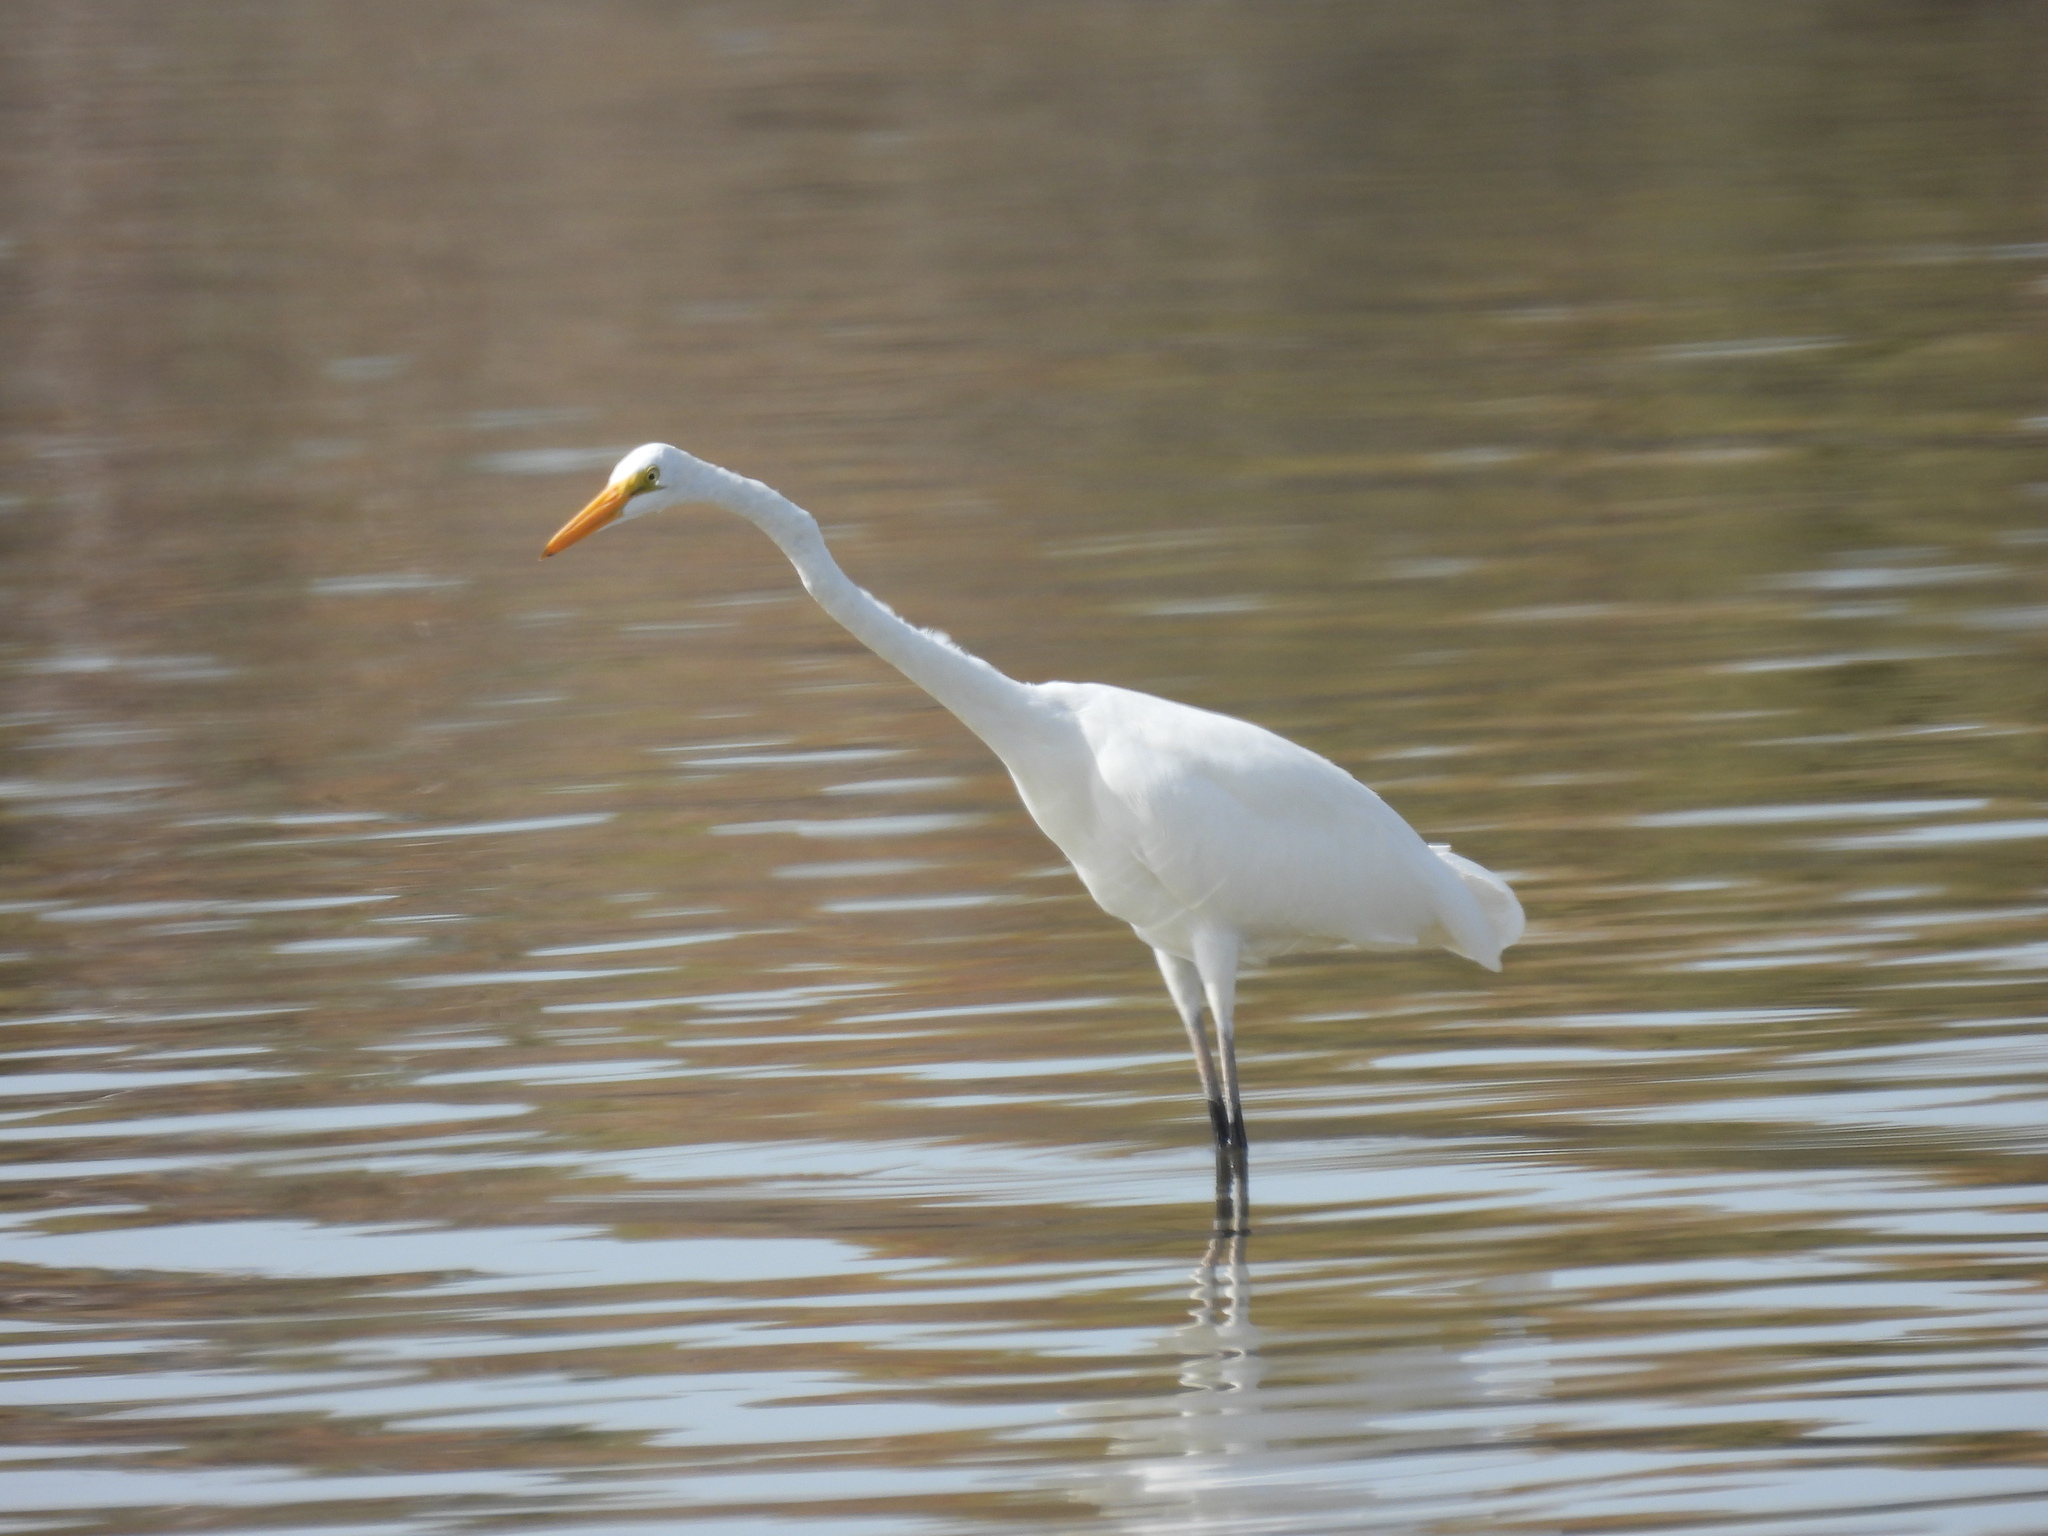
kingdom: Animalia
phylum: Chordata
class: Aves
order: Pelecaniformes
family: Ardeidae
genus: Ardea
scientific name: Ardea alba
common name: Great egret
